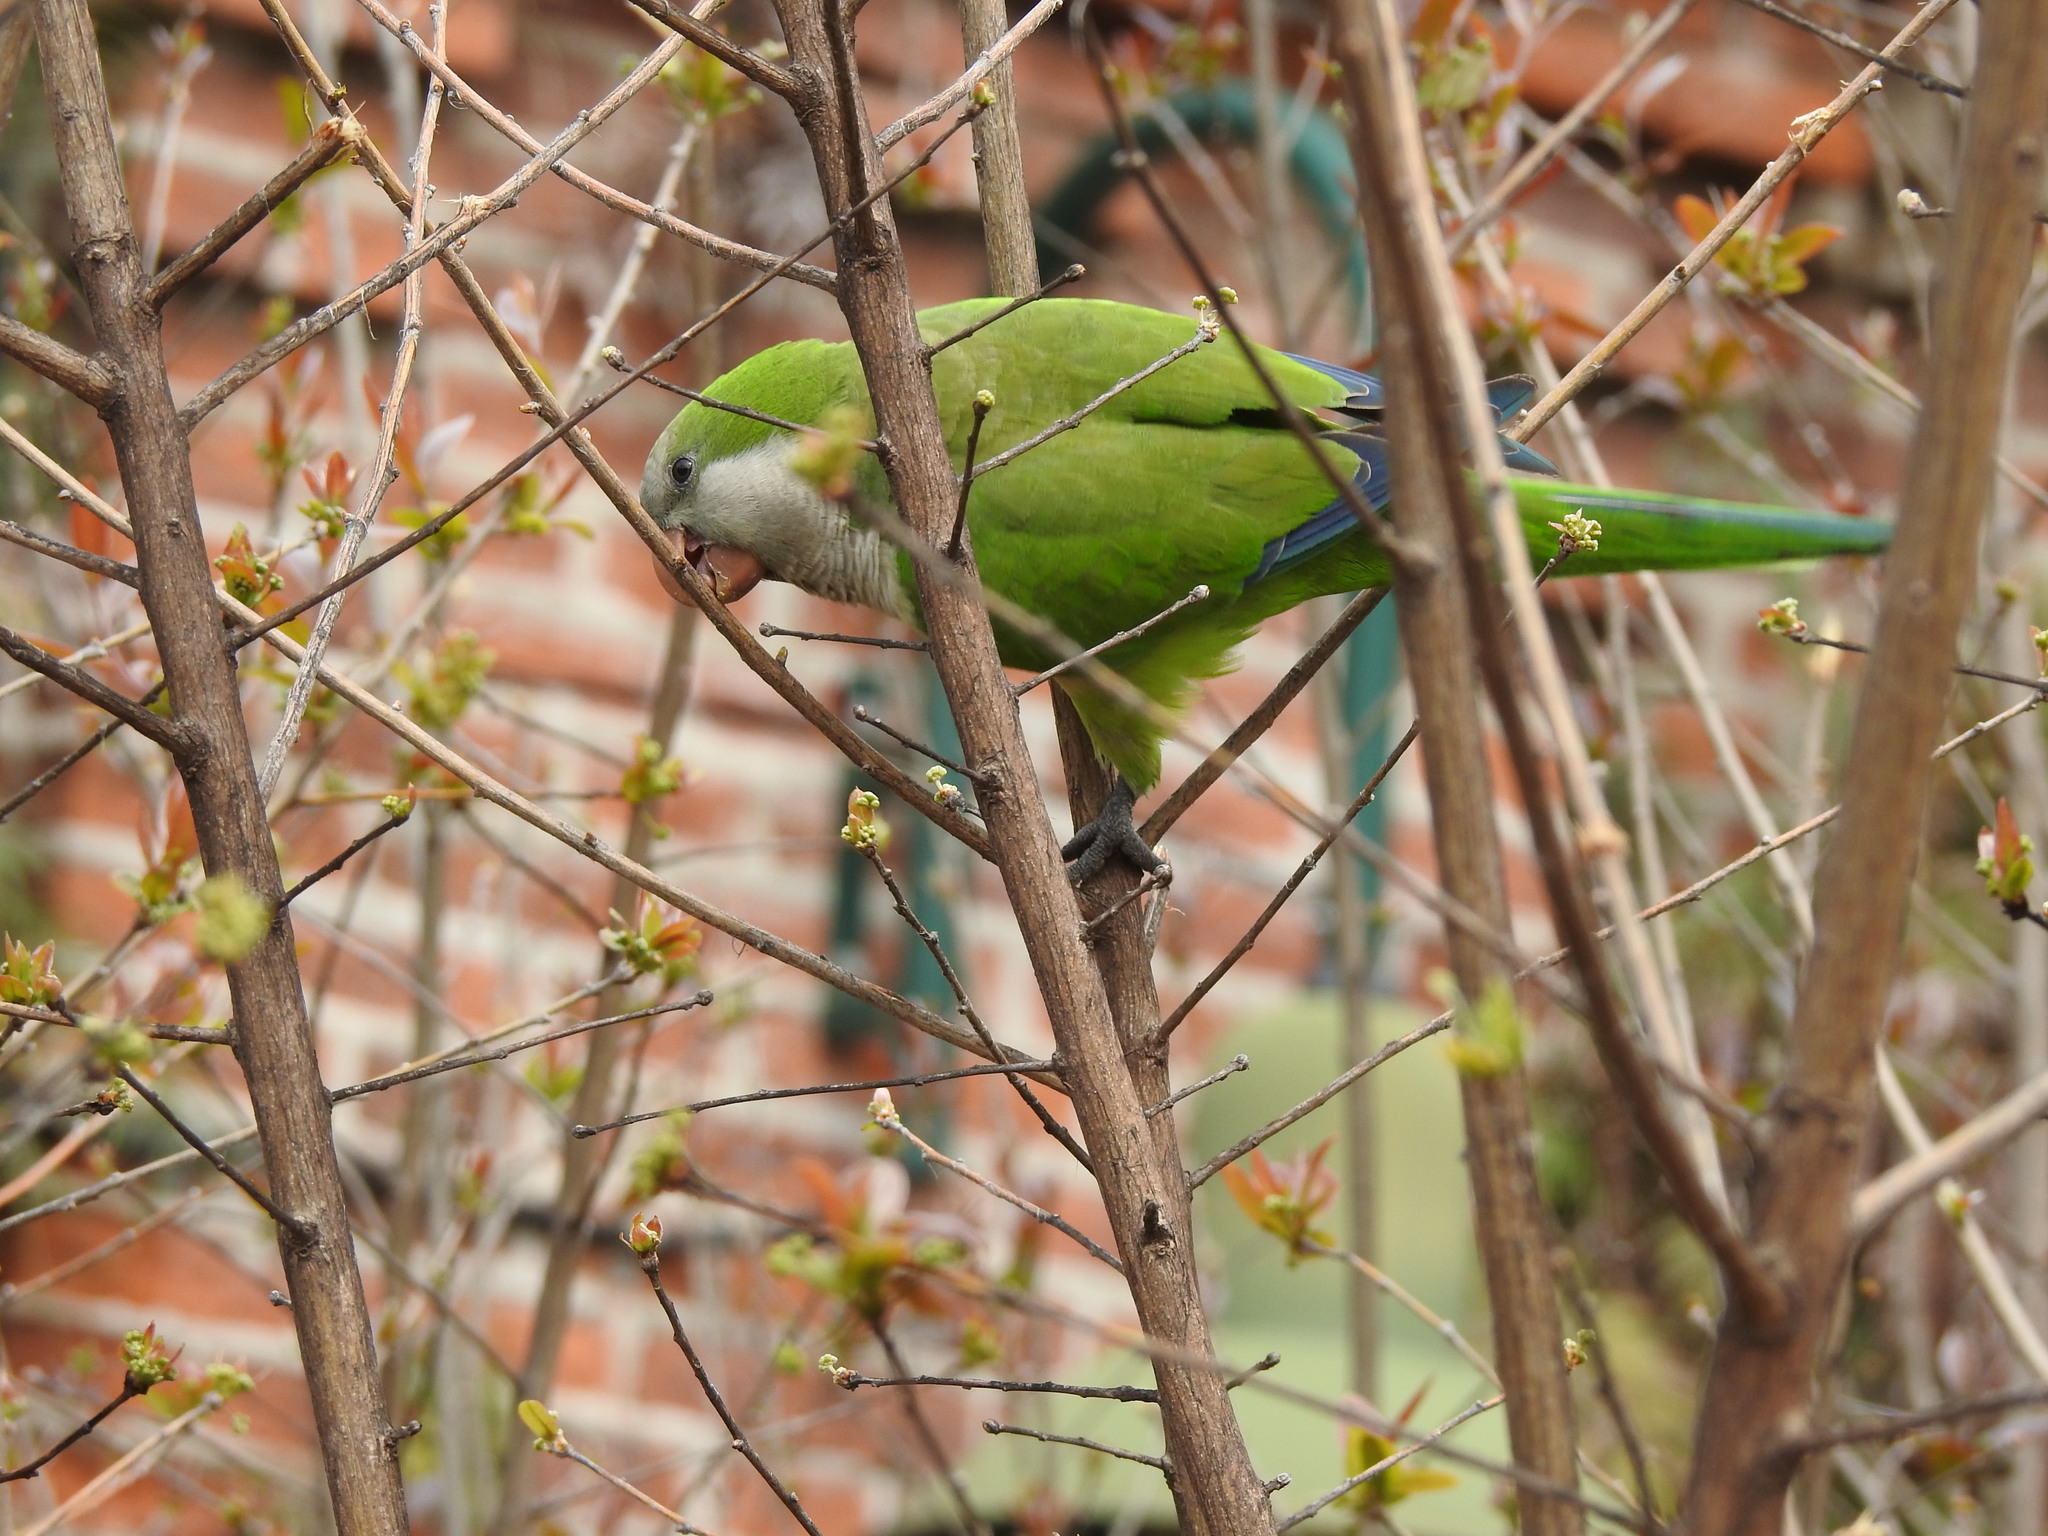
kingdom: Animalia
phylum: Chordata
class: Aves
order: Psittaciformes
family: Psittacidae
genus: Myiopsitta
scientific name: Myiopsitta monachus
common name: Monk parakeet
